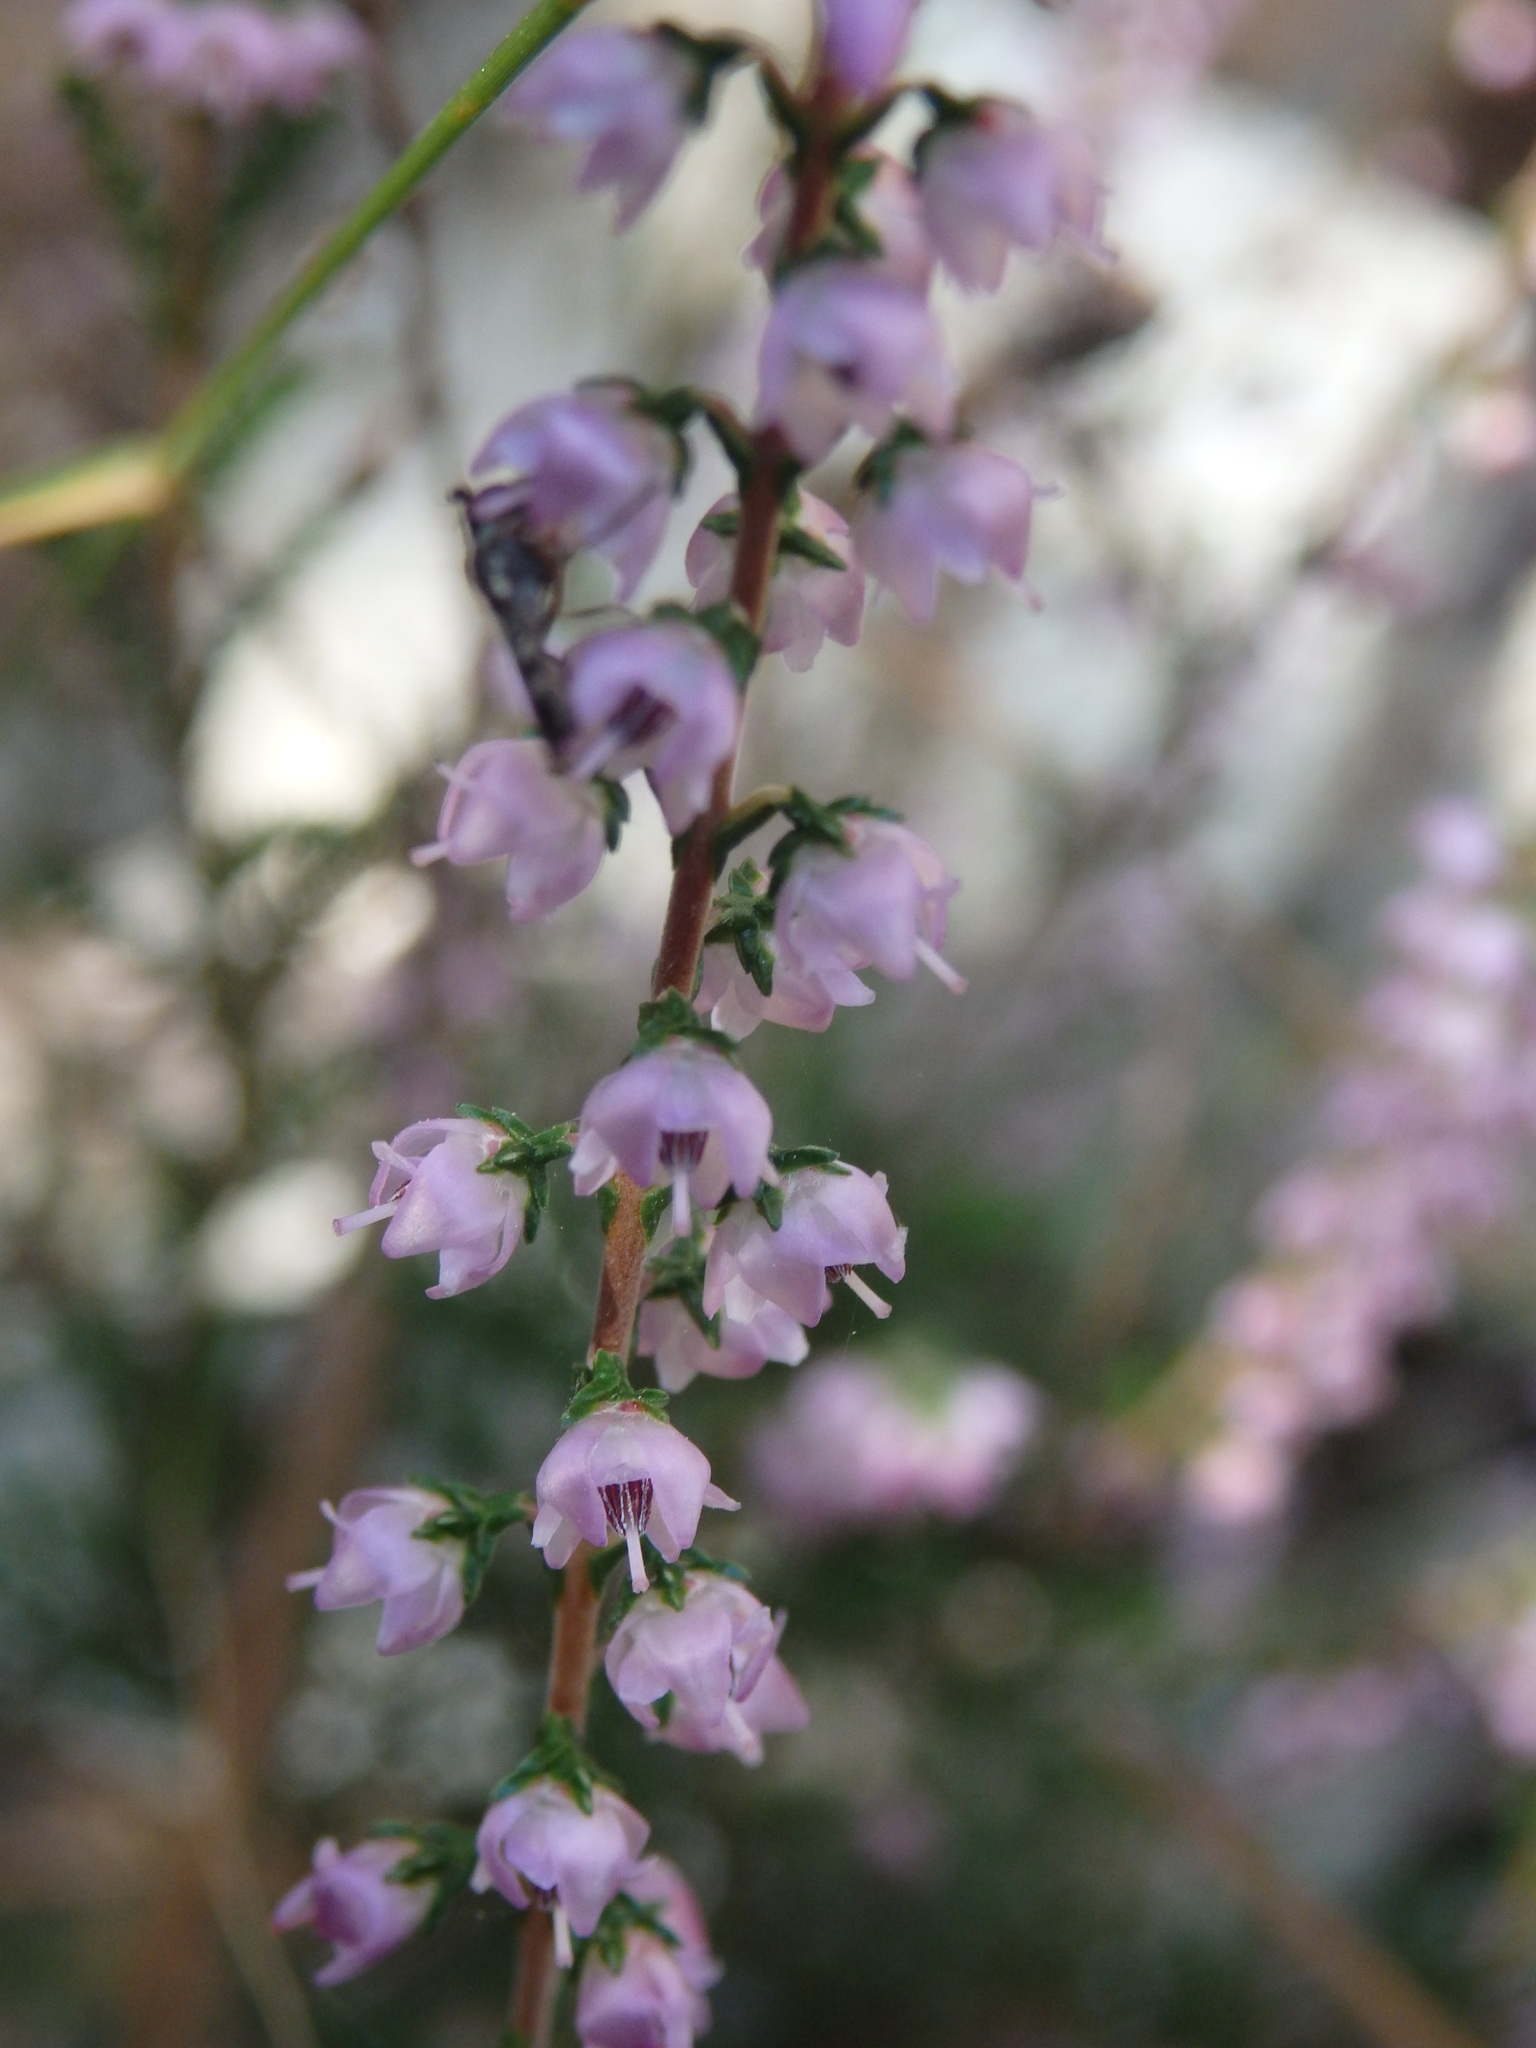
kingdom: Plantae
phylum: Tracheophyta
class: Magnoliopsida
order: Ericales
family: Ericaceae
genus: Calluna
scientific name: Calluna vulgaris
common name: Heather
